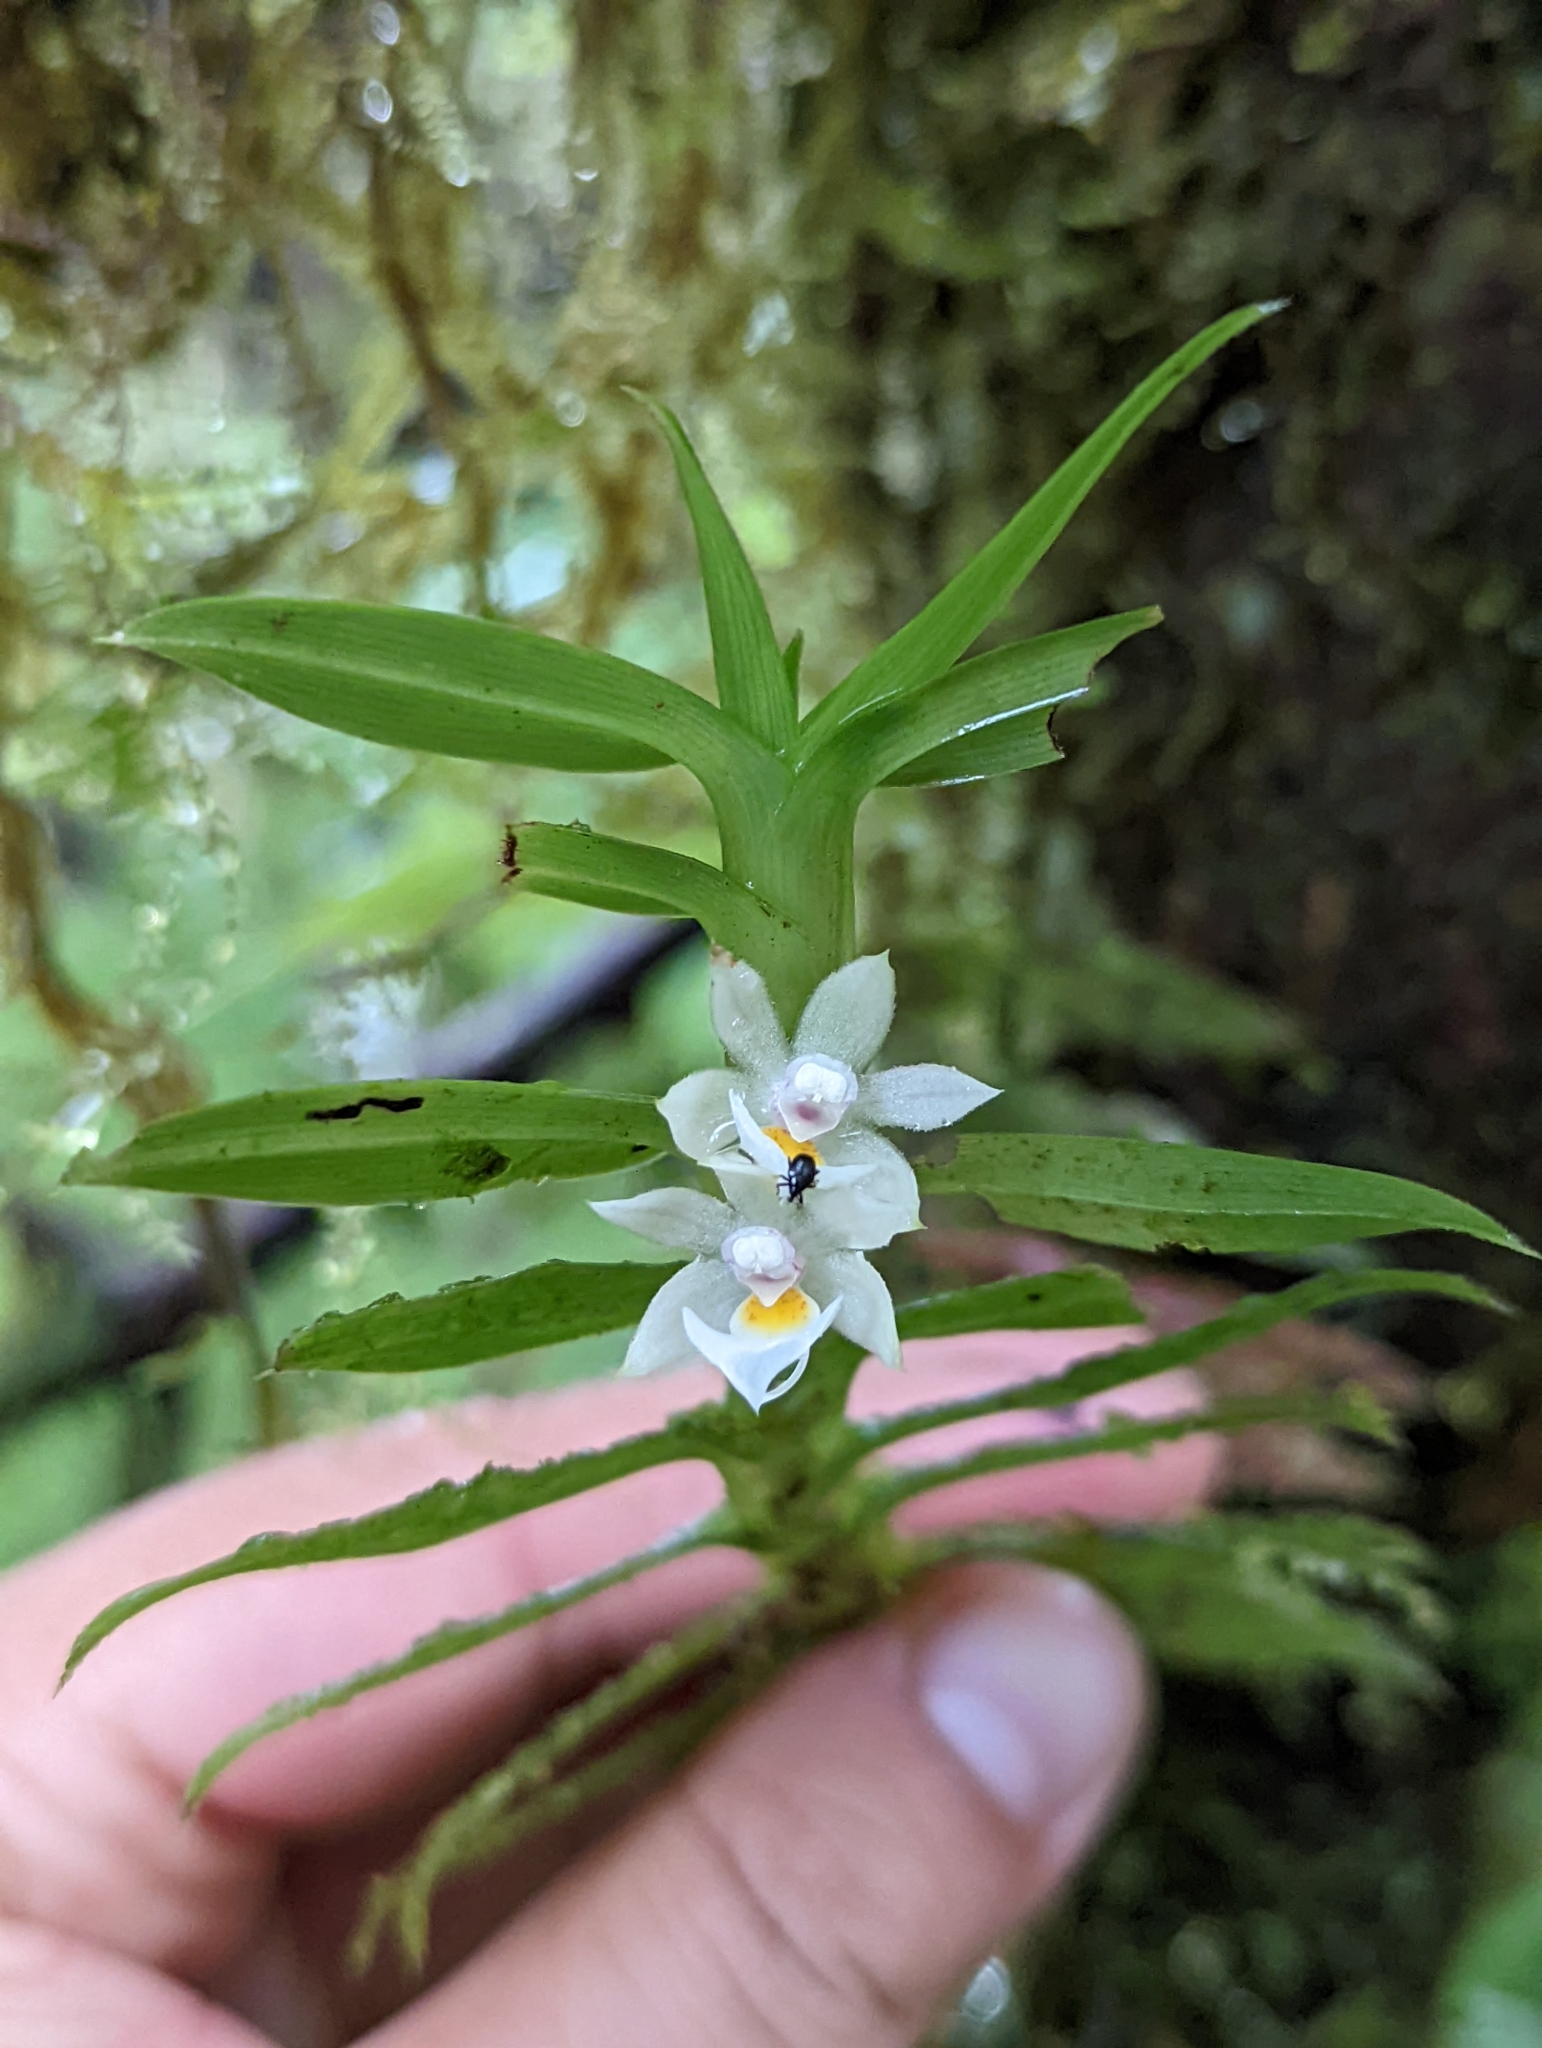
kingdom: Plantae
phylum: Tracheophyta
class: Liliopsida
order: Asparagales
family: Orchidaceae
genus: Dichaea
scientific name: Dichaea camaridioides
